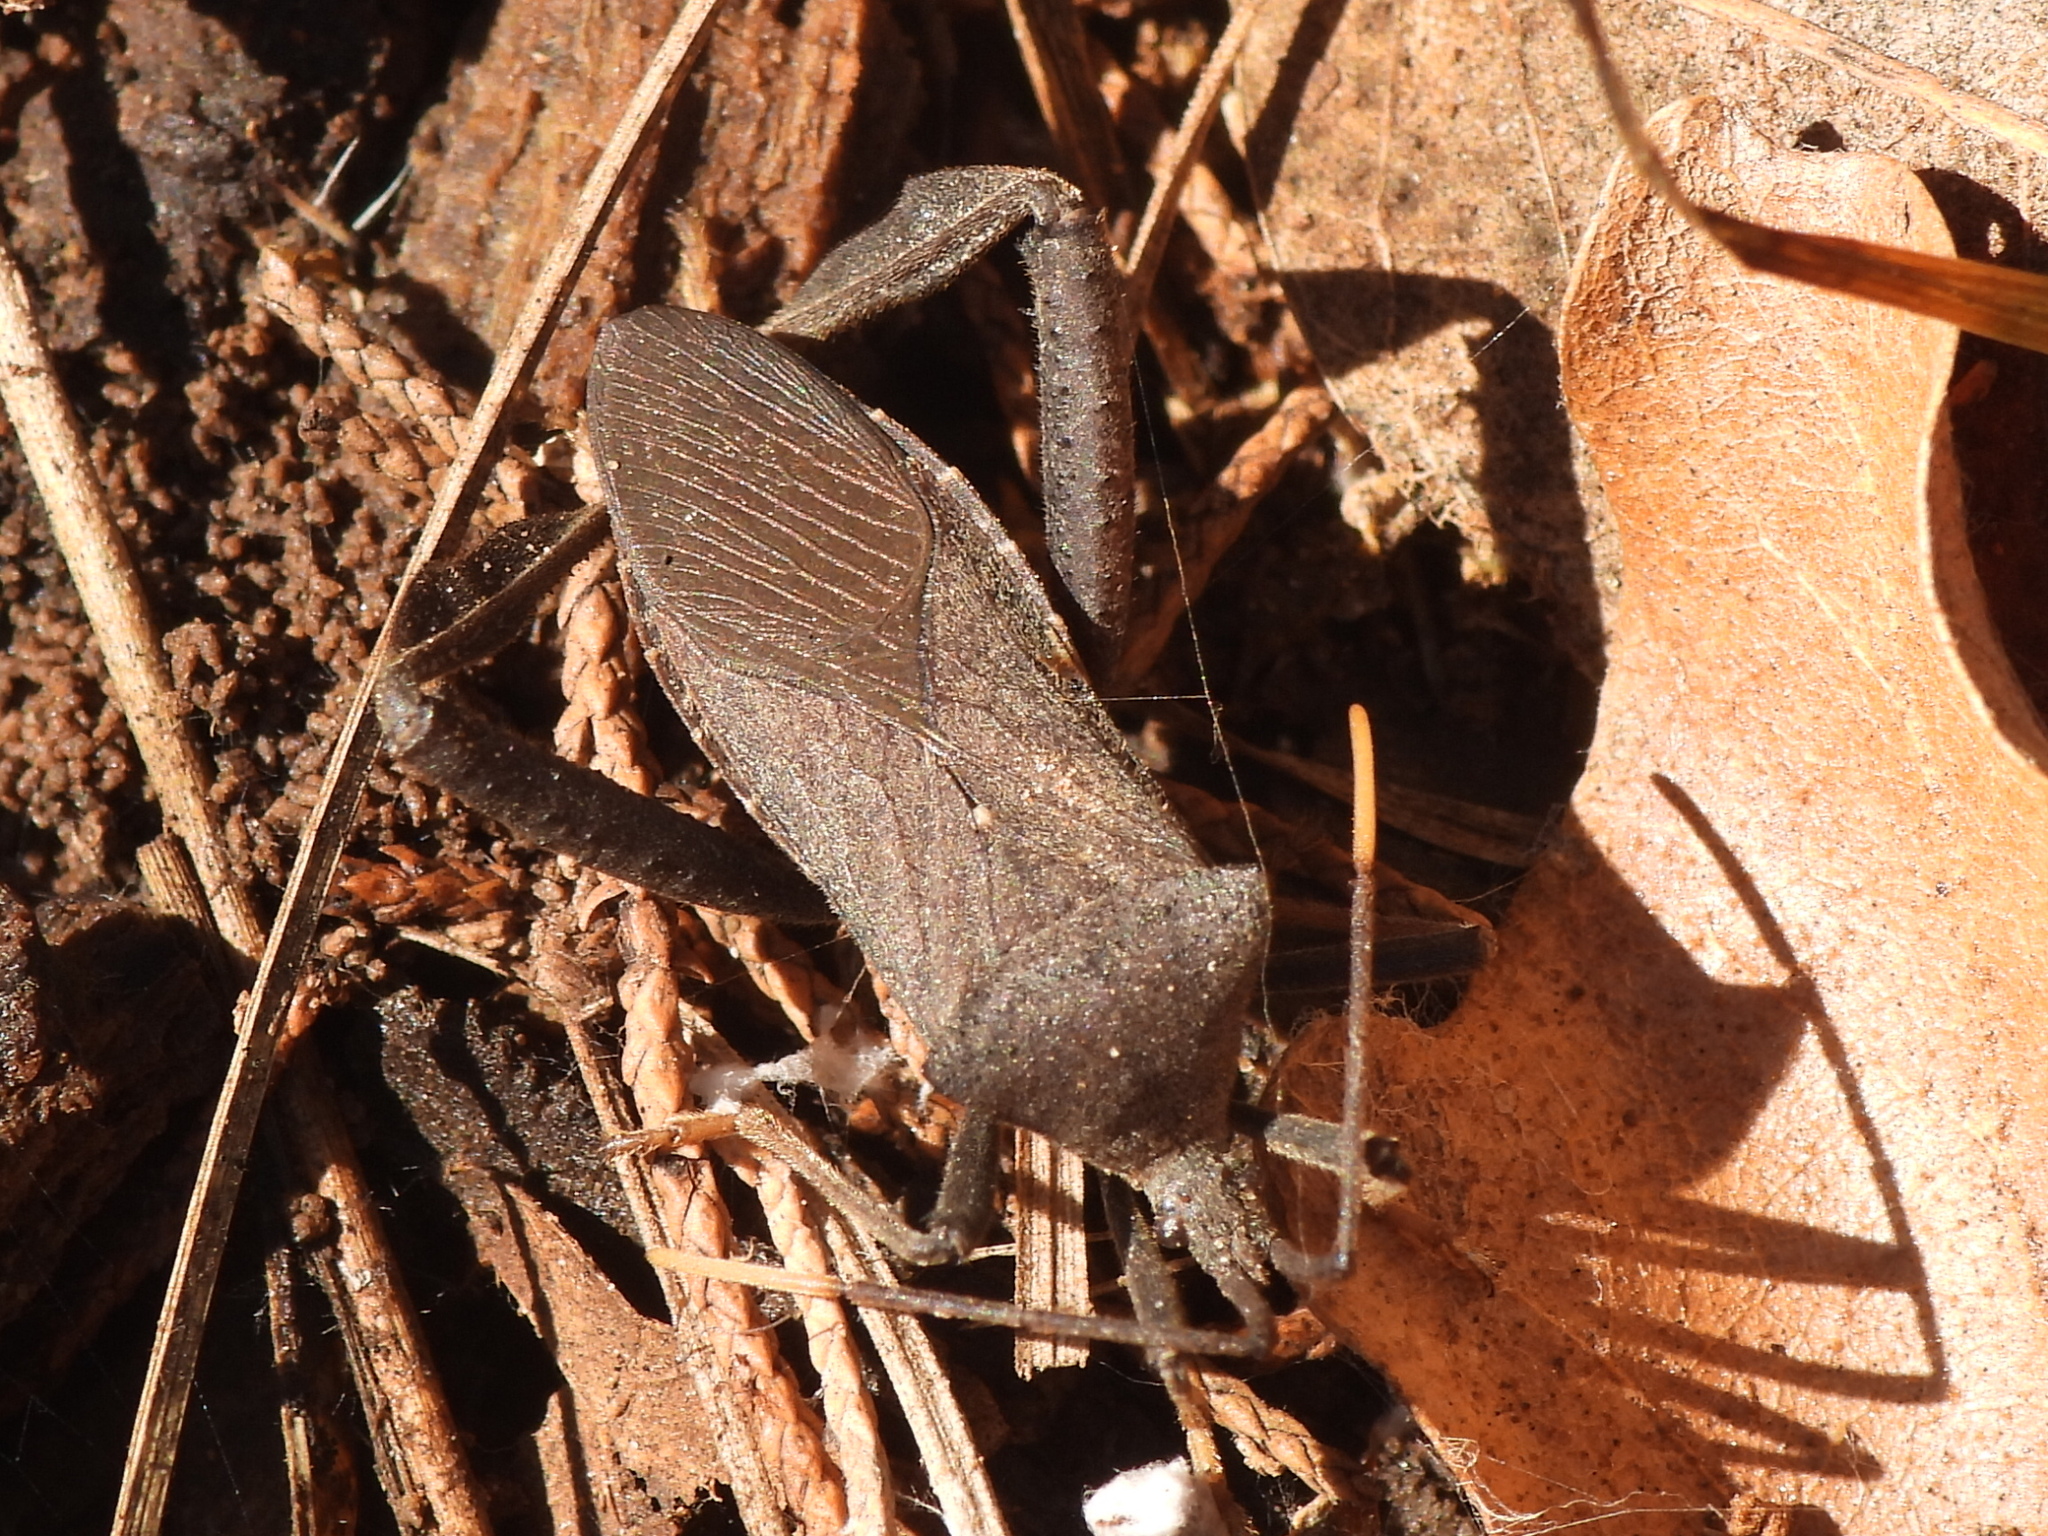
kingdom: Animalia
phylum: Arthropoda
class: Insecta
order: Hemiptera
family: Coreidae
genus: Acanthocephala
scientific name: Acanthocephala terminalis
